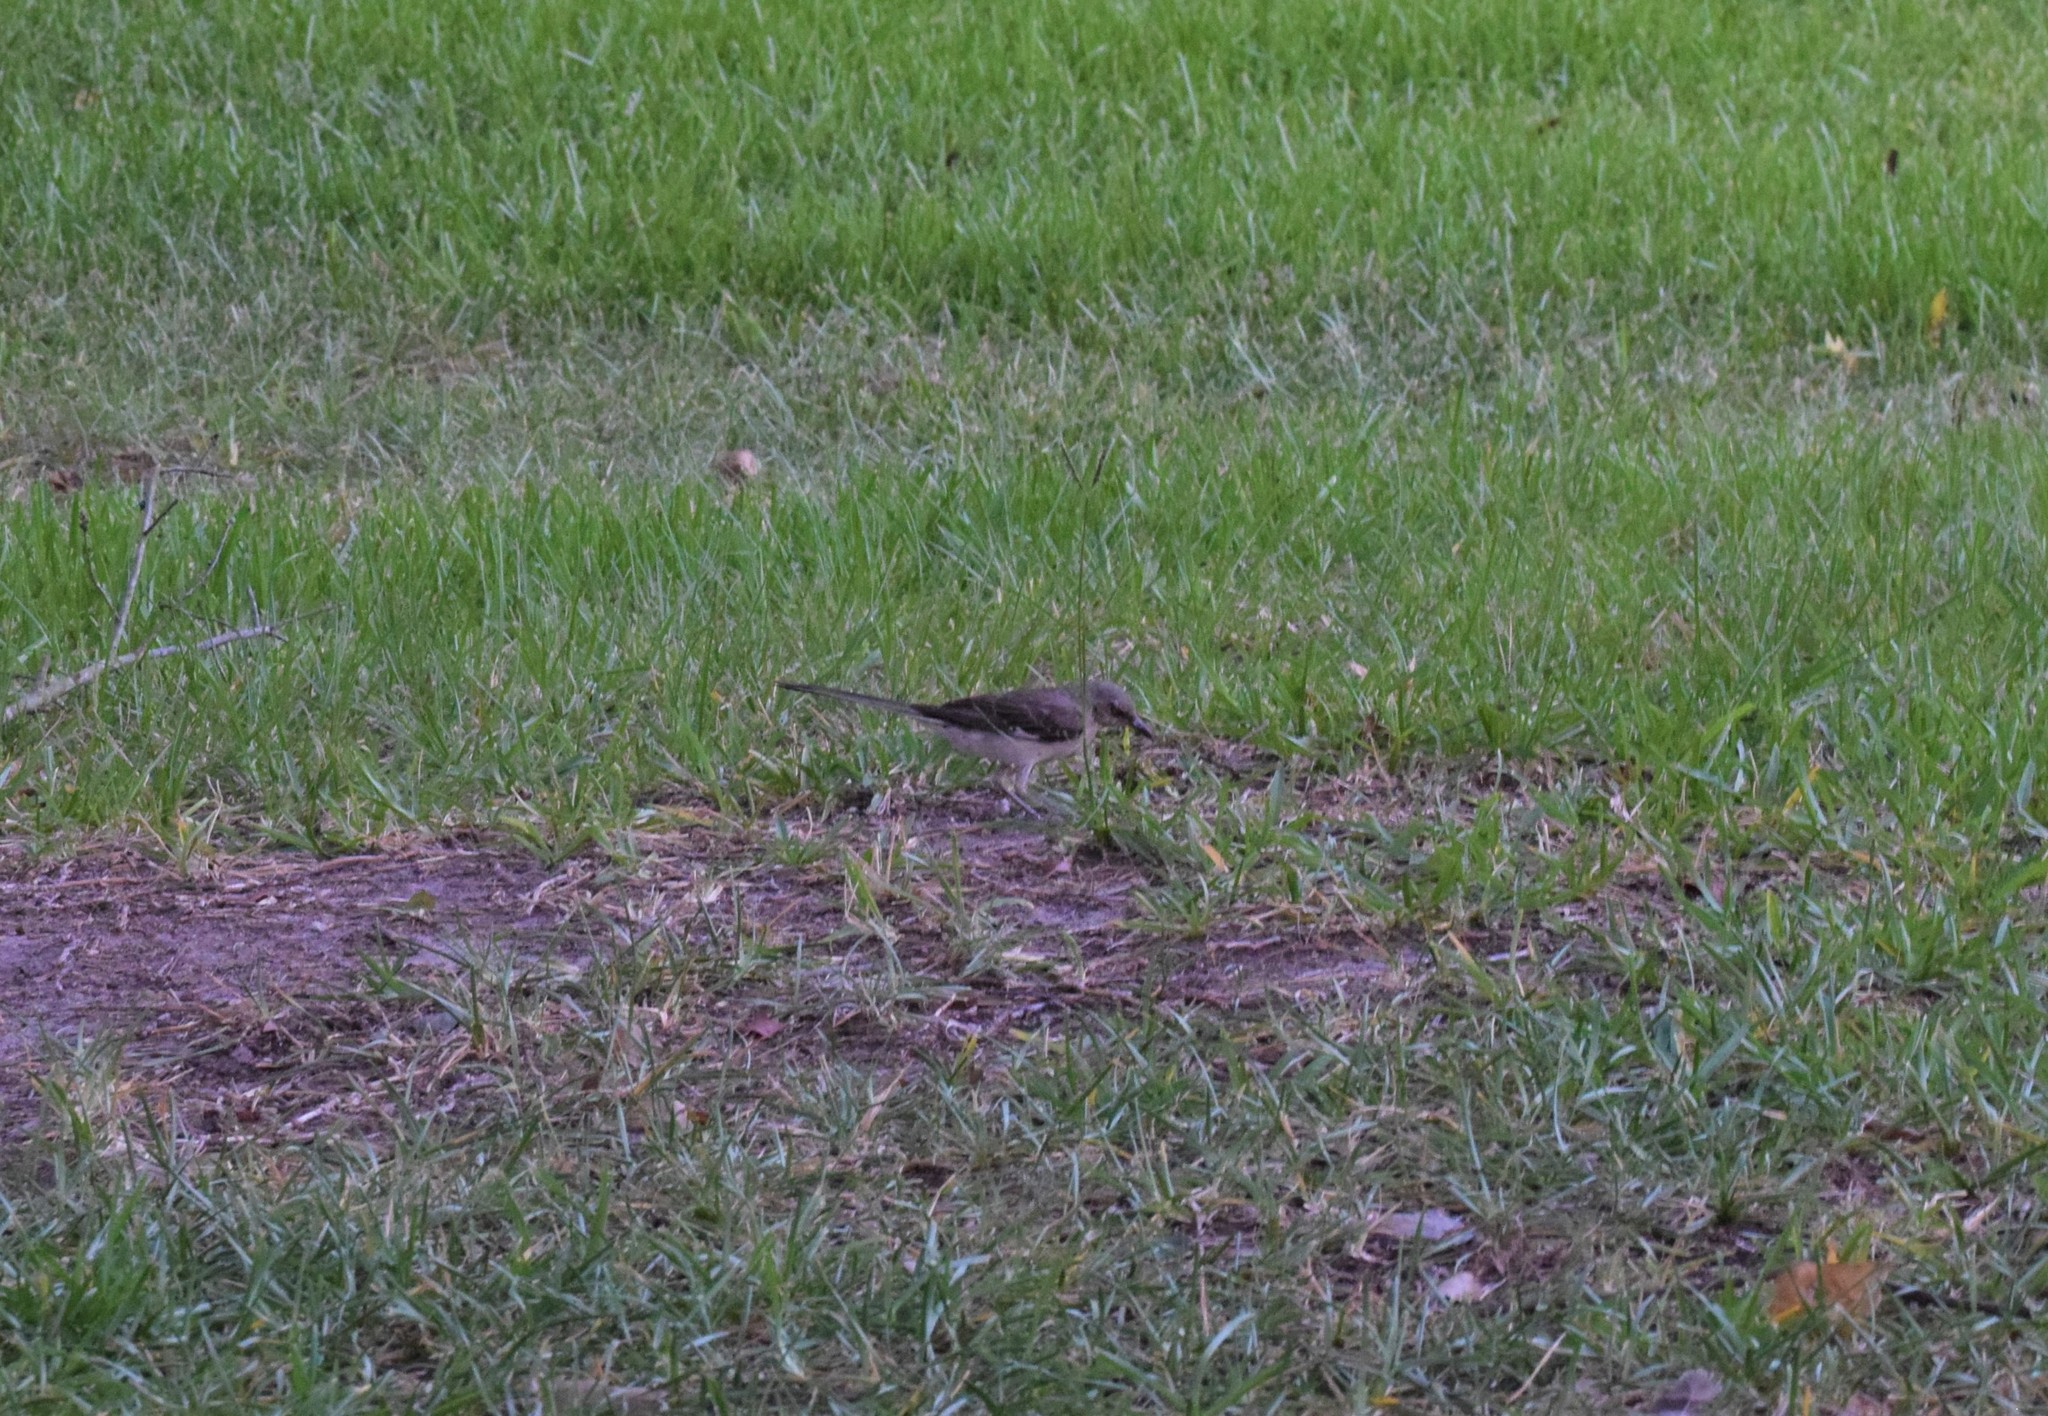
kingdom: Animalia
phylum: Chordata
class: Aves
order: Passeriformes
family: Mimidae
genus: Mimus
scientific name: Mimus polyglottos
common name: Northern mockingbird
